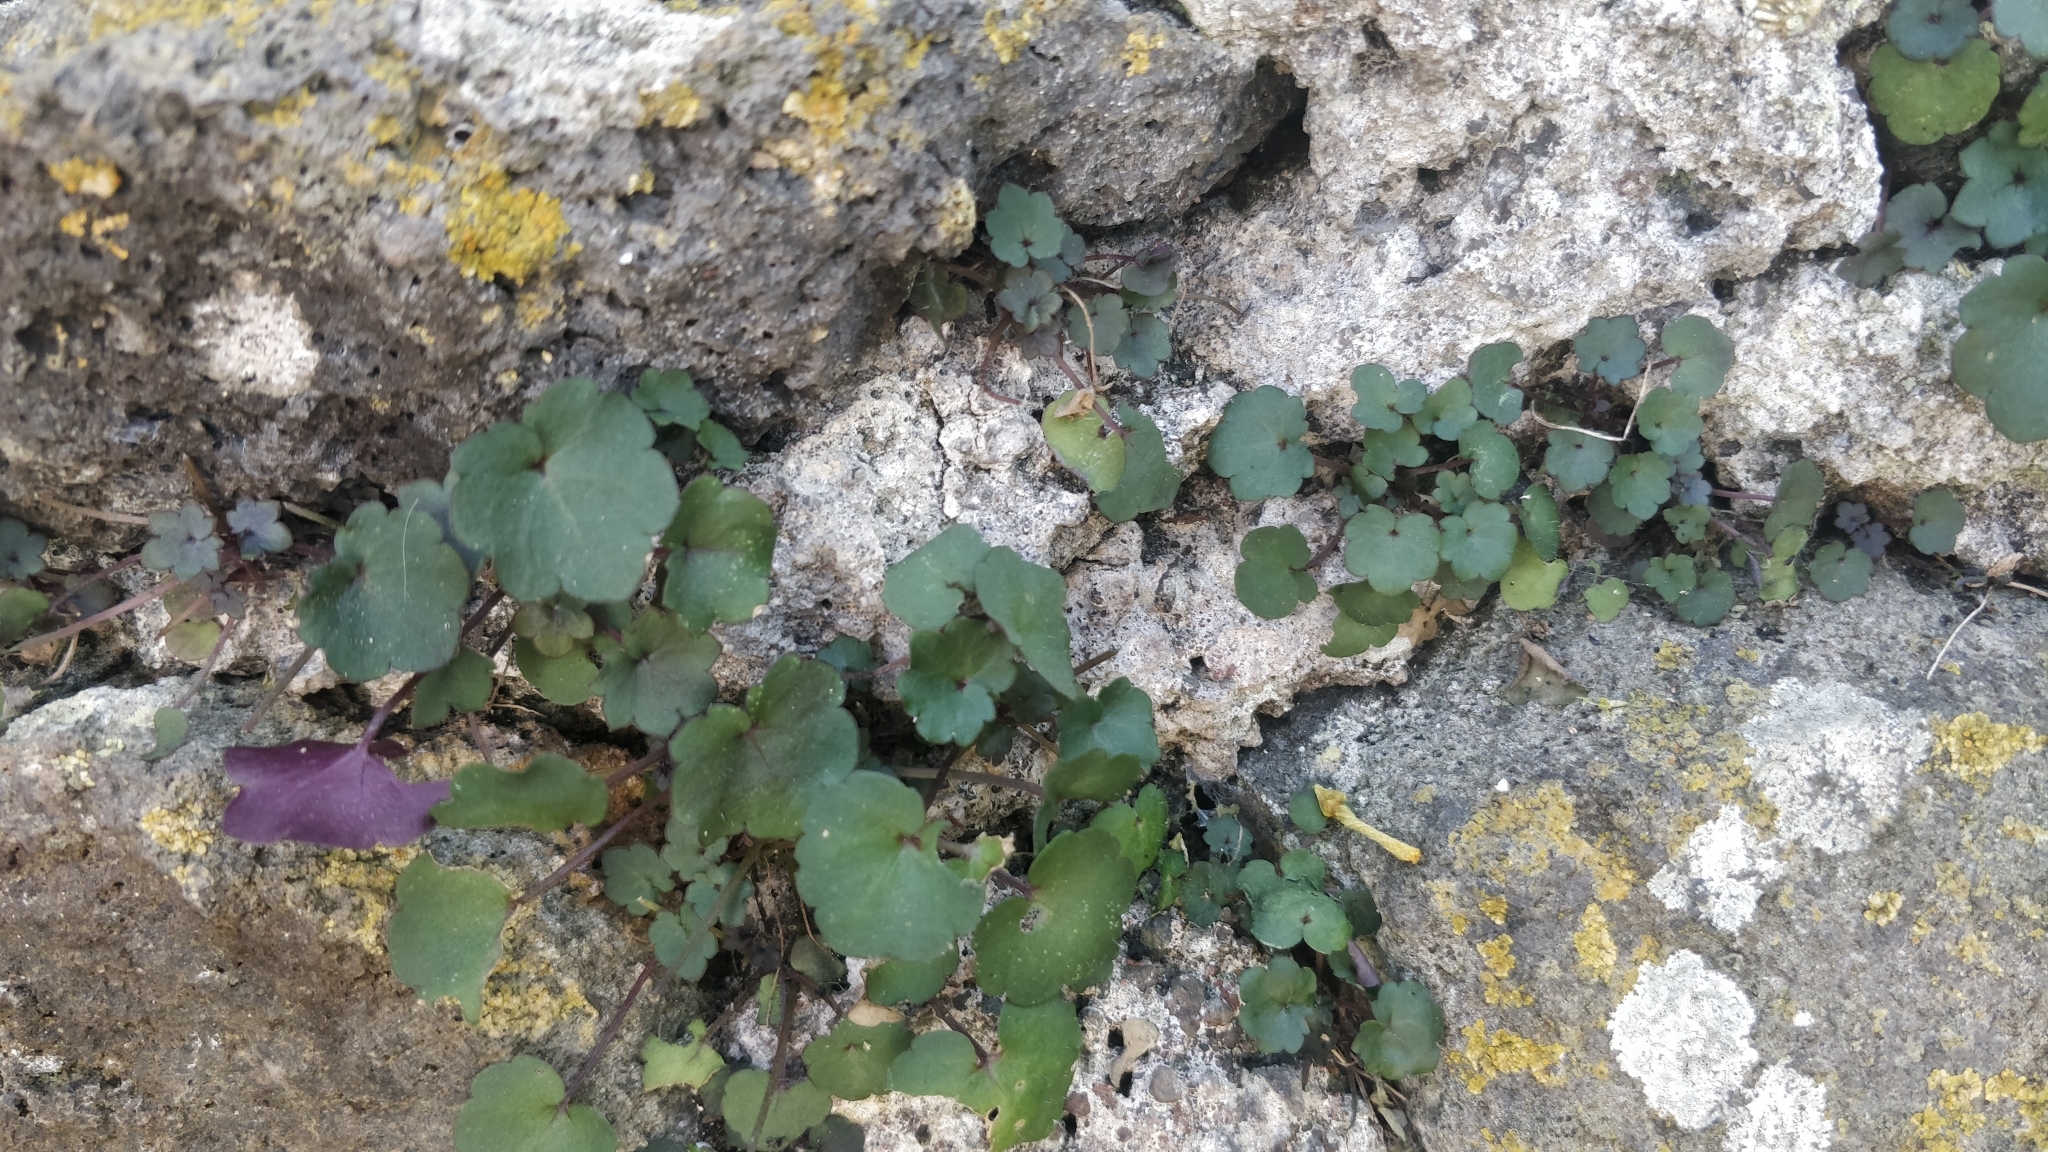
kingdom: Plantae
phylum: Tracheophyta
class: Magnoliopsida
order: Lamiales
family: Plantaginaceae
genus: Cymbalaria
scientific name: Cymbalaria muralis
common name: Ivy-leaved toadflax
